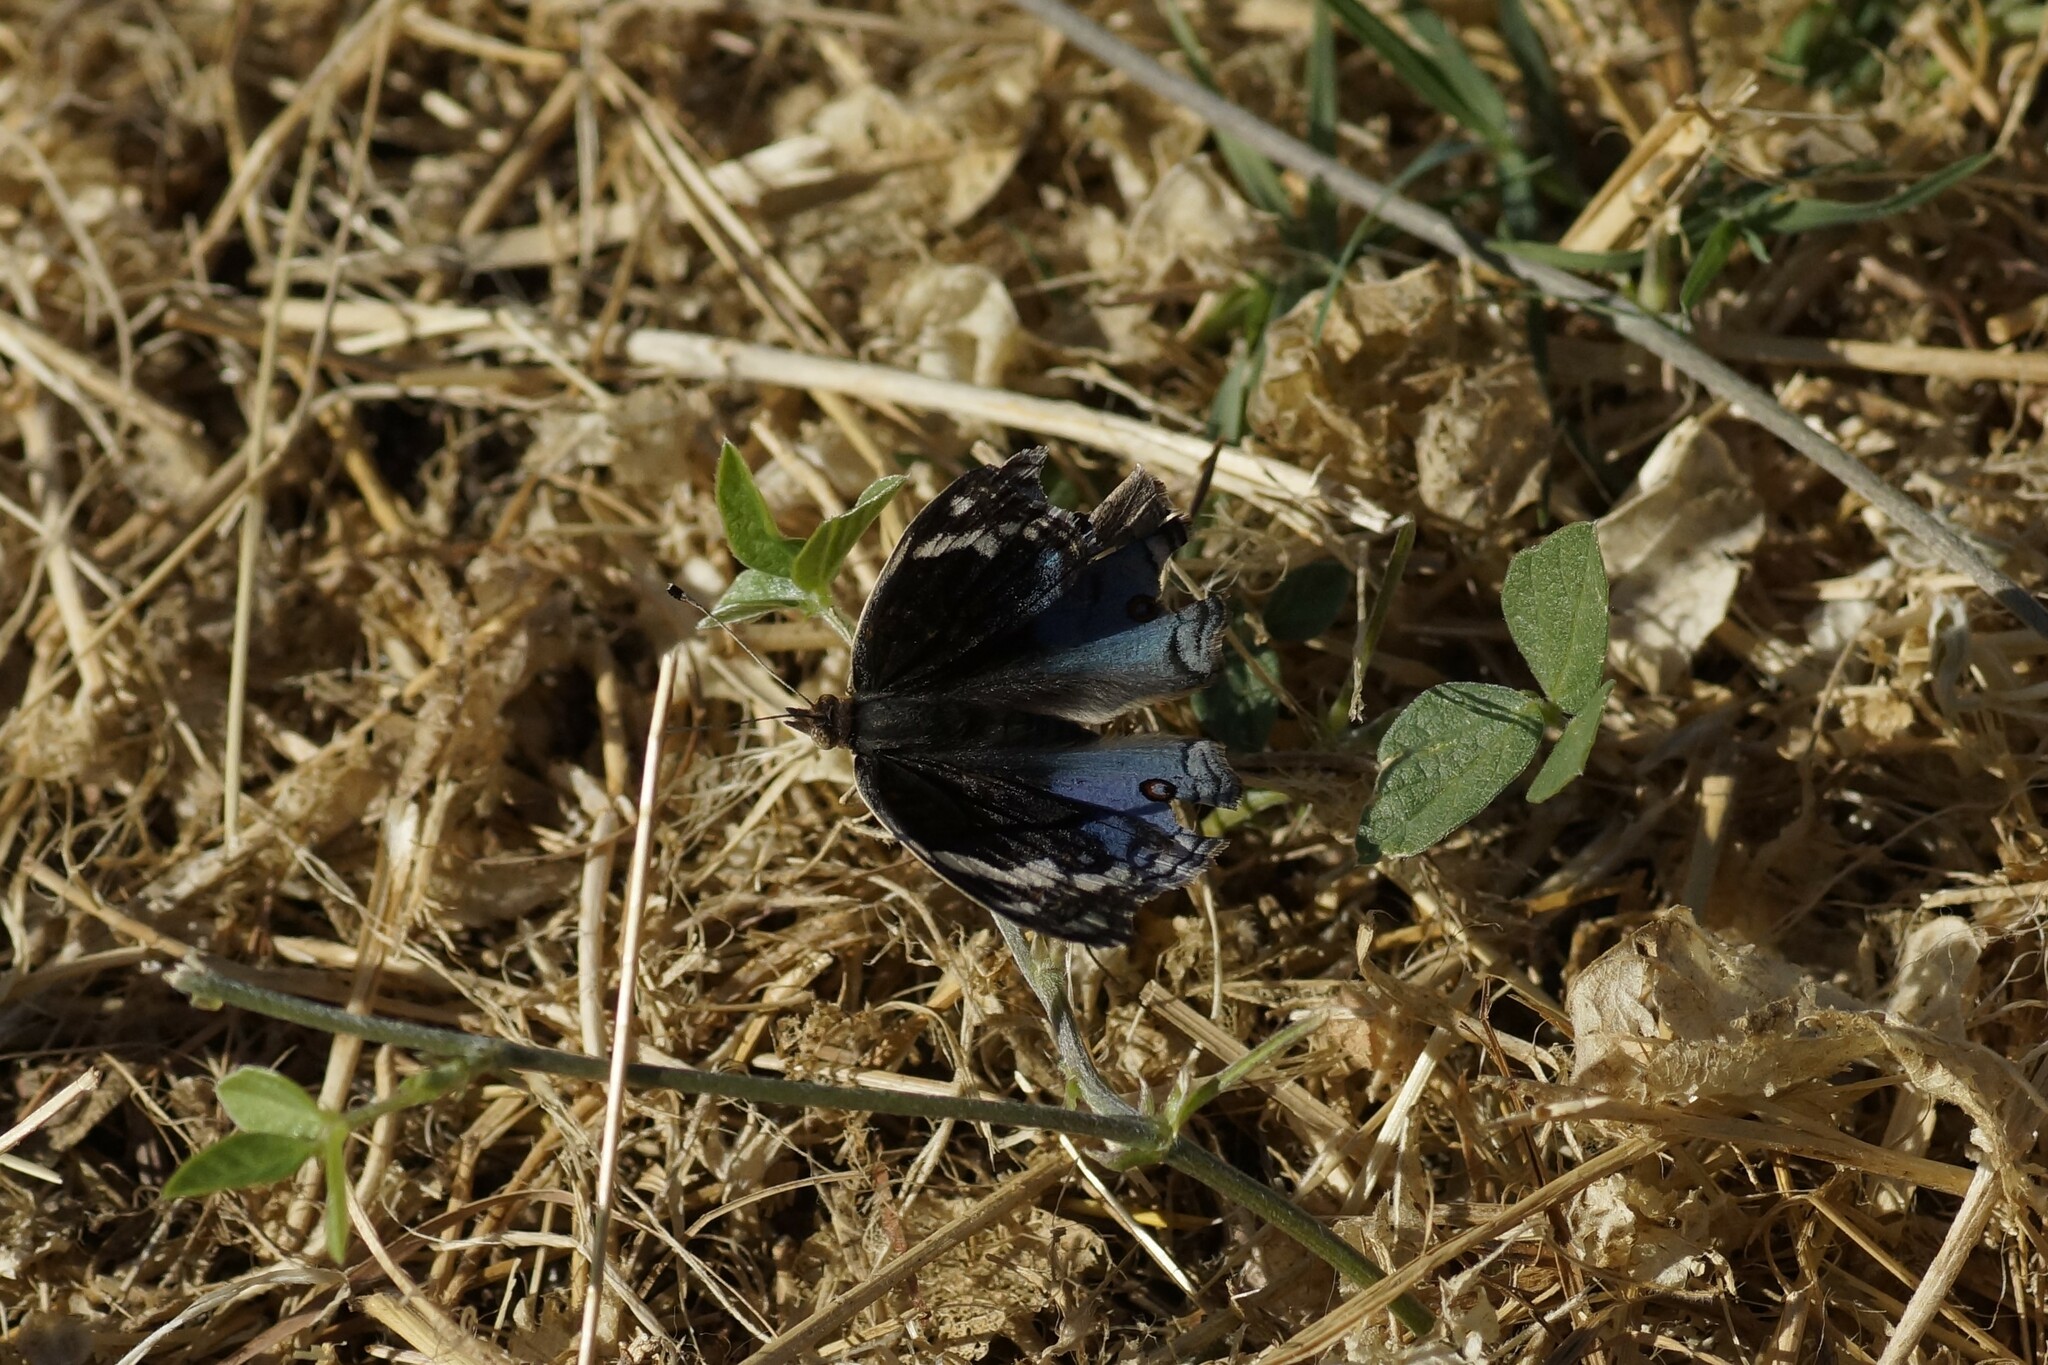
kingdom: Animalia
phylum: Arthropoda
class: Insecta
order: Lepidoptera
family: Nymphalidae
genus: Junonia
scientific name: Junonia orithya
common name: Blue pansy
